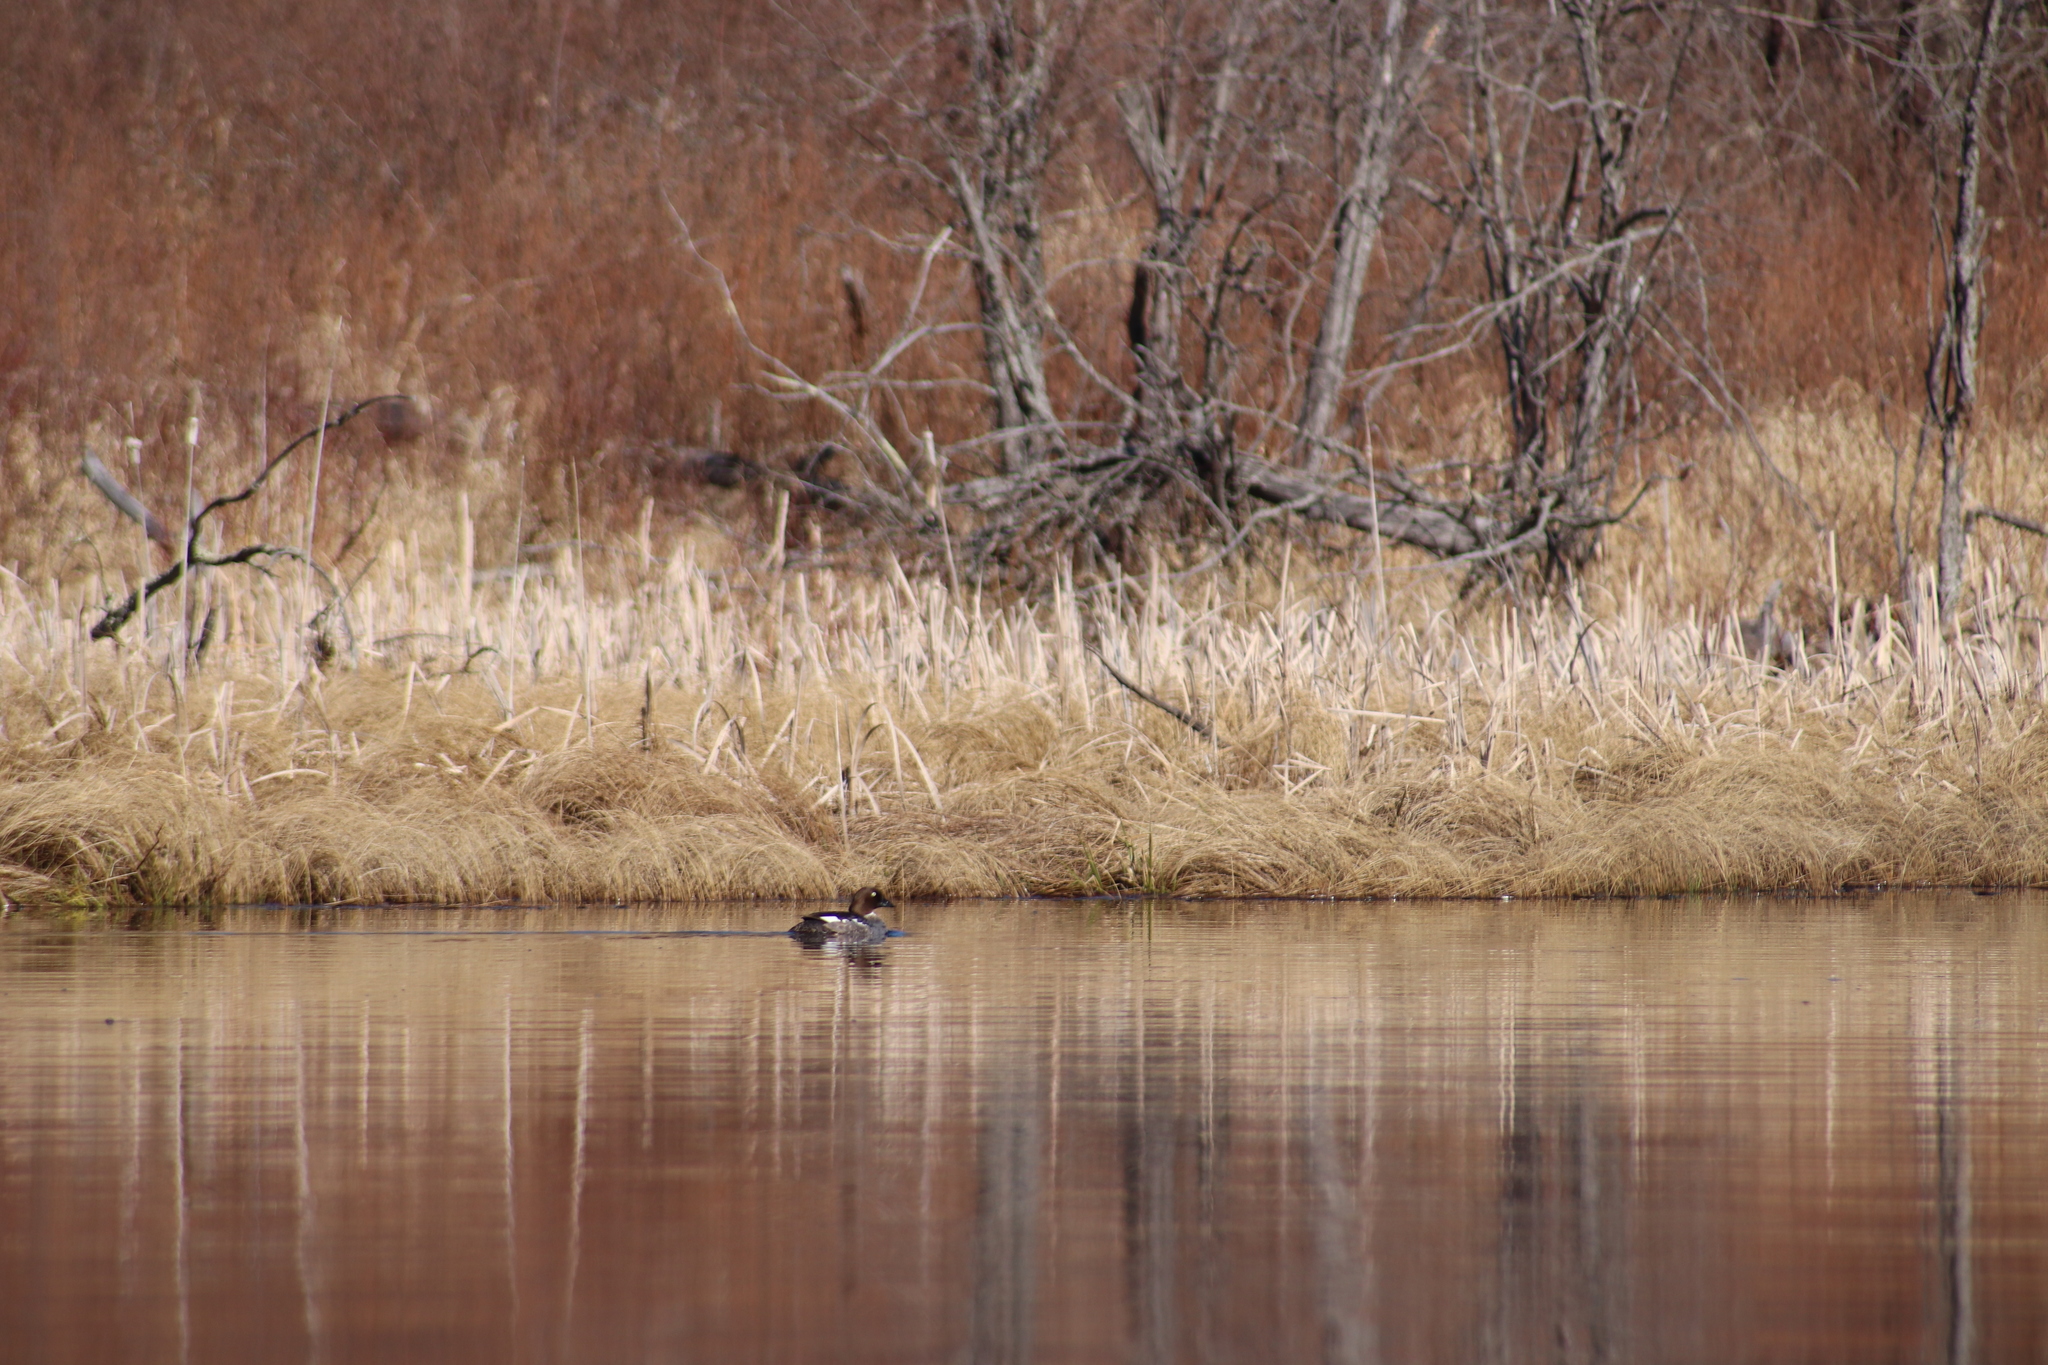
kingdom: Animalia
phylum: Chordata
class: Aves
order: Anseriformes
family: Anatidae
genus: Bucephala
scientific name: Bucephala clangula
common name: Common goldeneye
